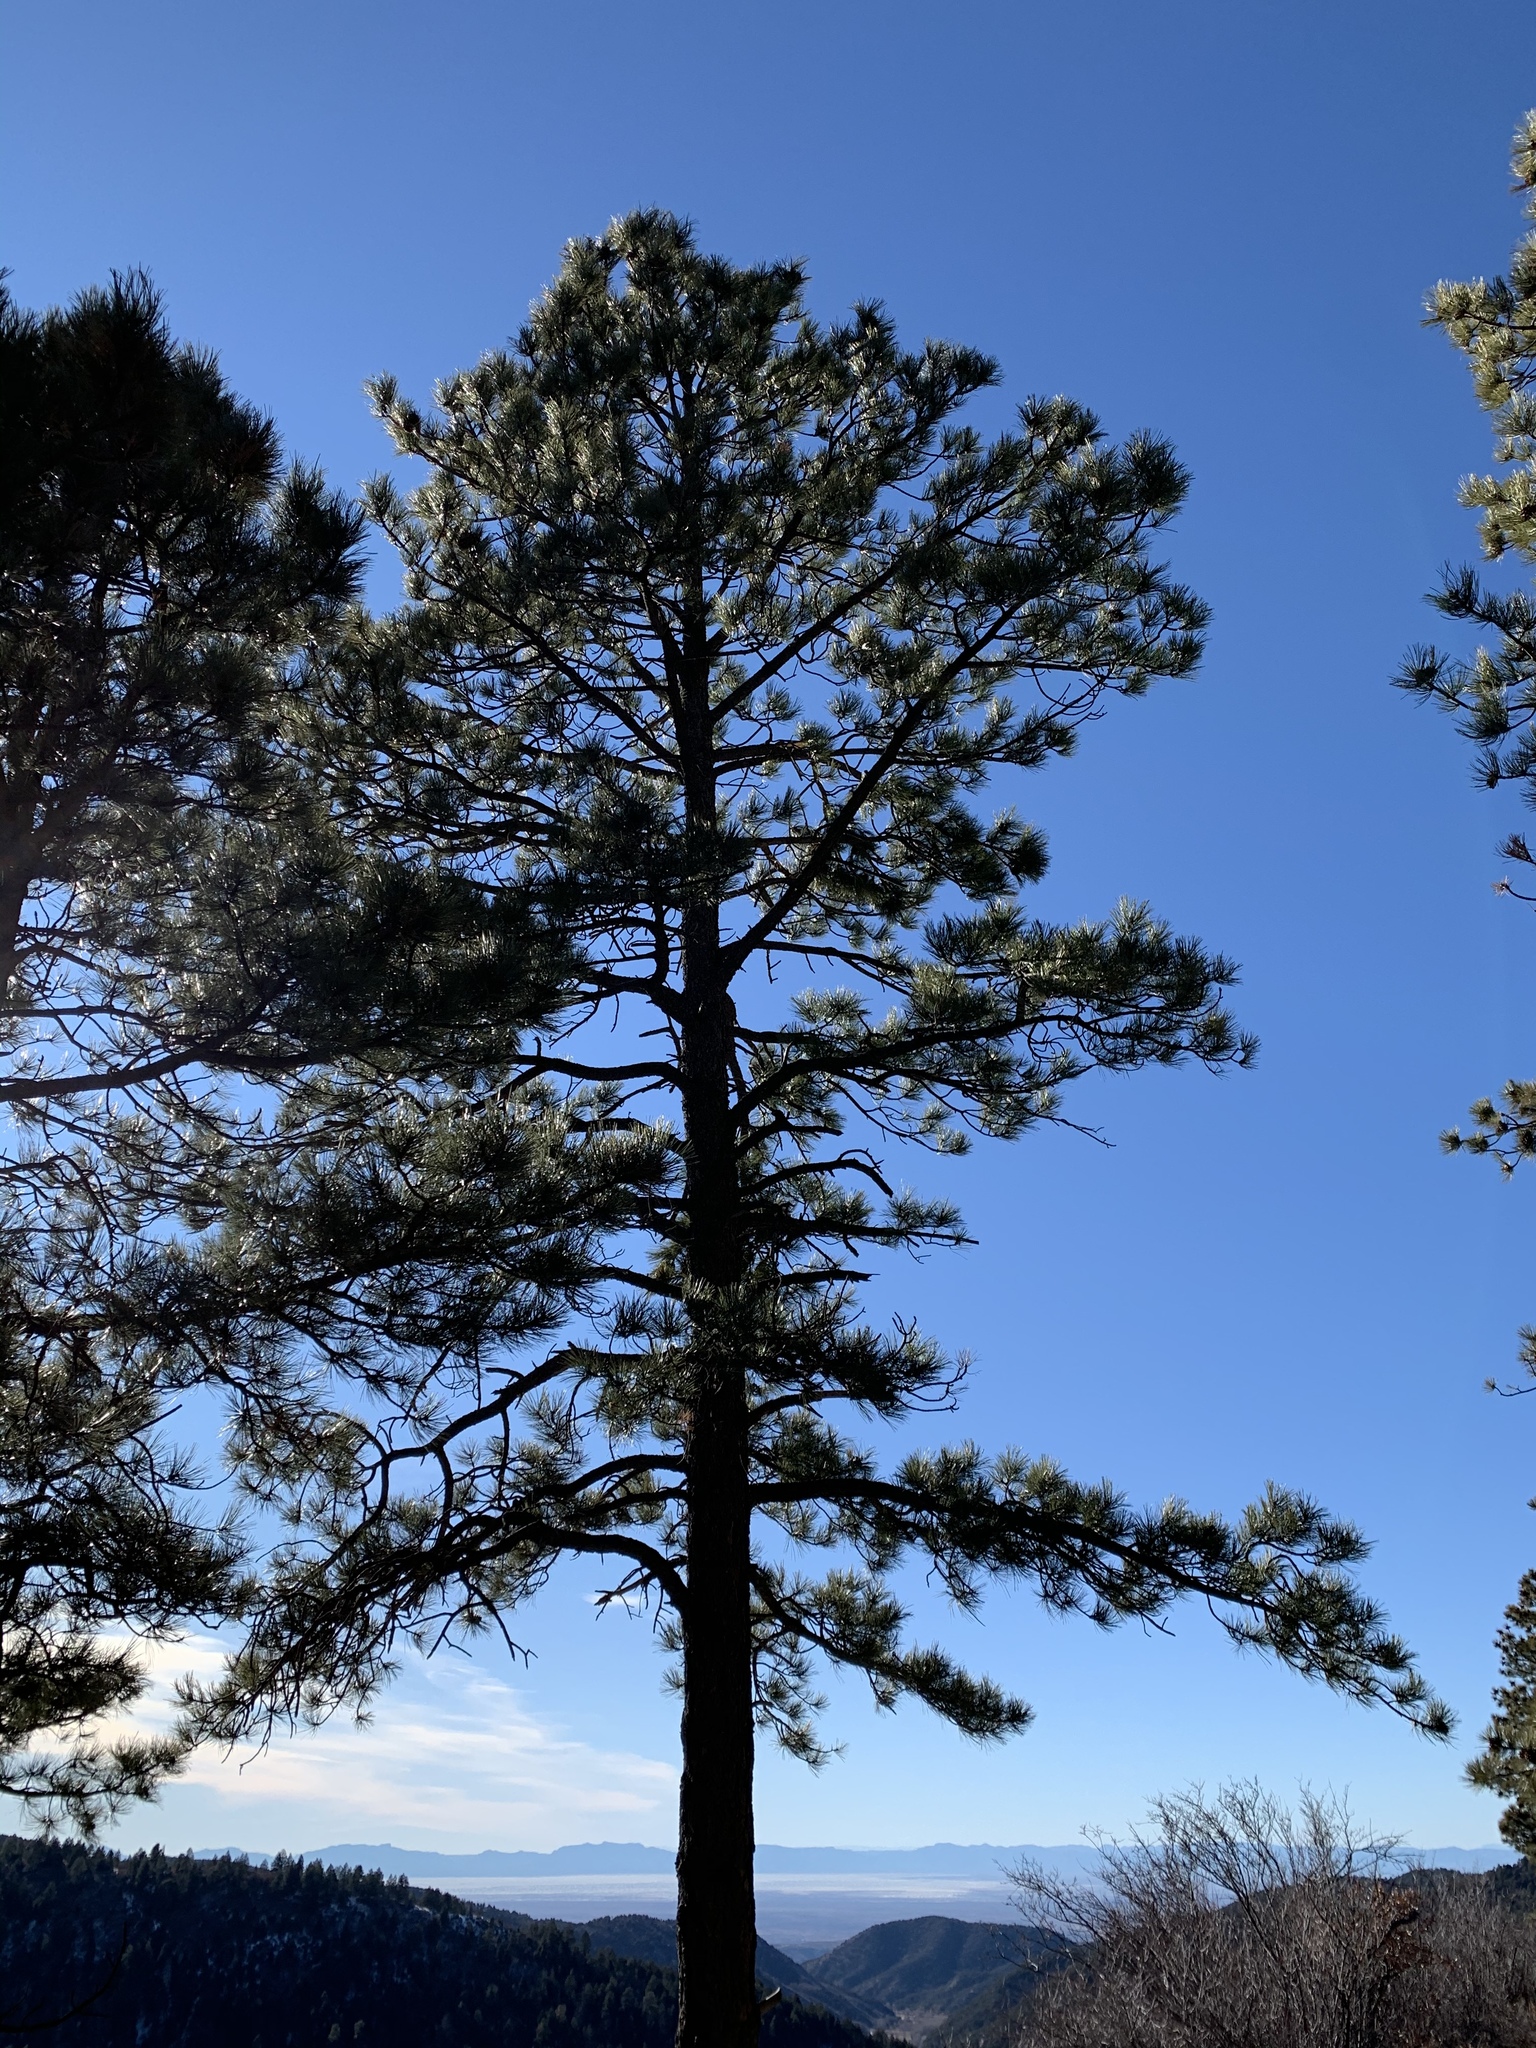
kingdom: Plantae
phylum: Tracheophyta
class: Pinopsida
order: Pinales
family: Pinaceae
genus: Pinus
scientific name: Pinus ponderosa
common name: Western yellow-pine
